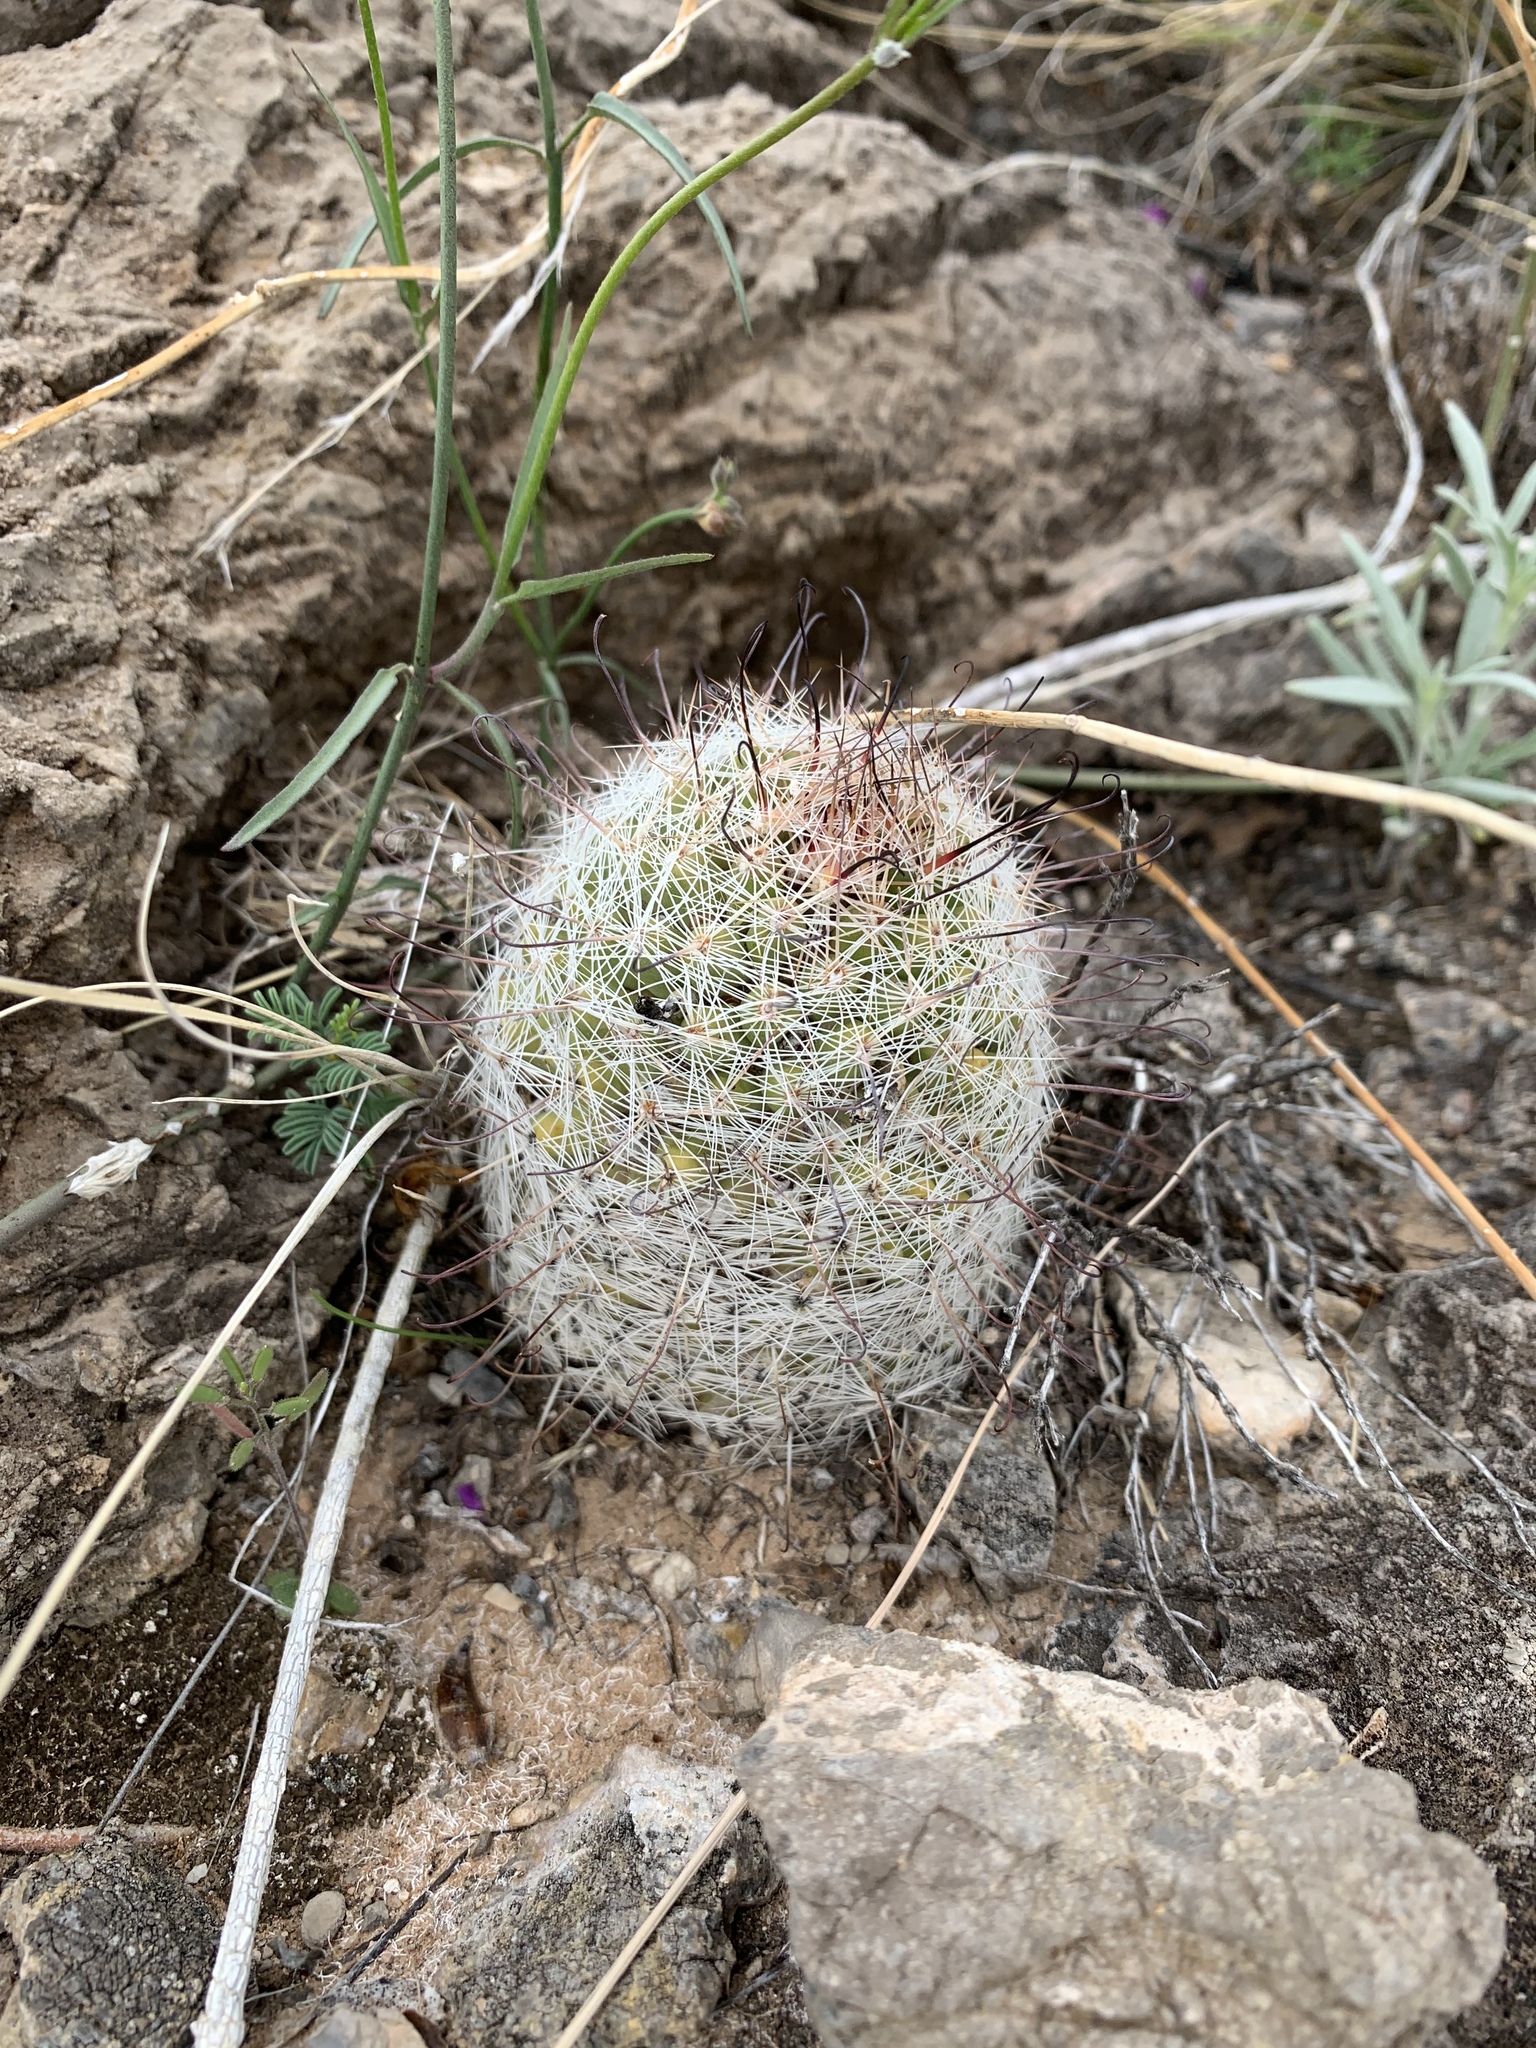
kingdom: Plantae
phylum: Tracheophyta
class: Magnoliopsida
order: Caryophyllales
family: Cactaceae
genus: Cochemiea
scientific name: Cochemiea grahamii
